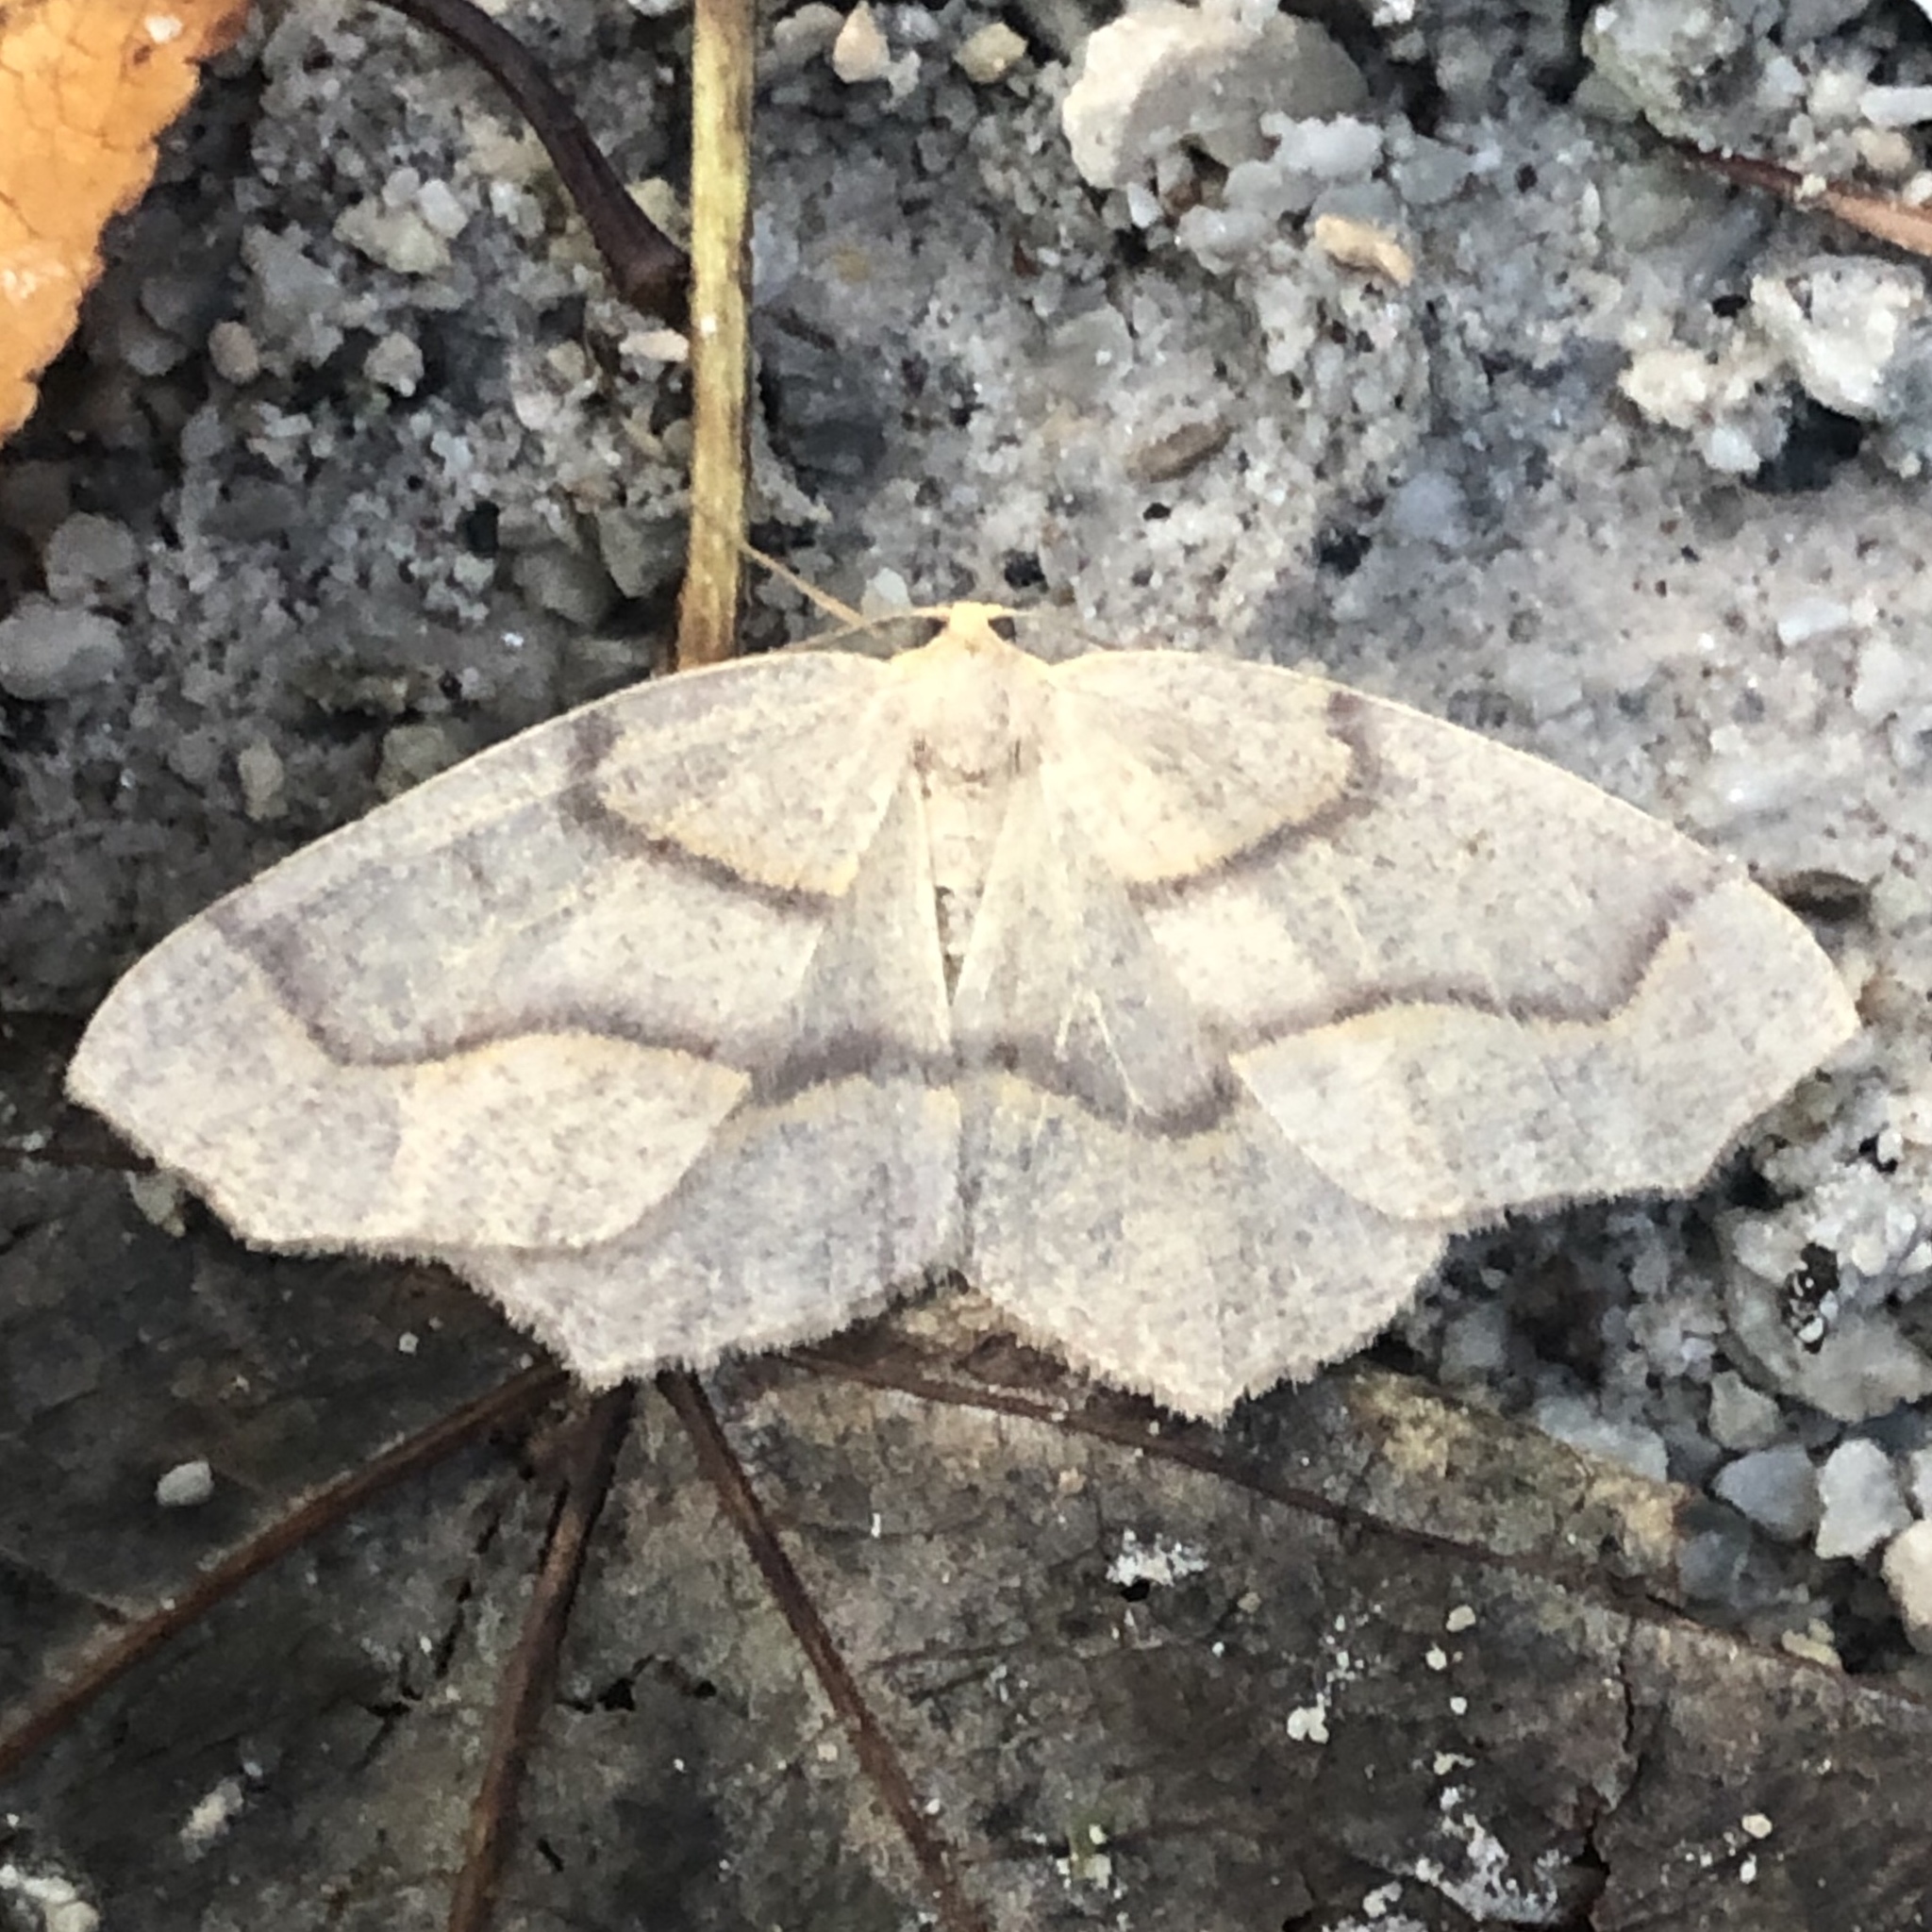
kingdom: Animalia
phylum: Arthropoda
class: Insecta
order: Lepidoptera
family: Geometridae
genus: Lambdina
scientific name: Lambdina fiscellaria
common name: Hemlock looper
